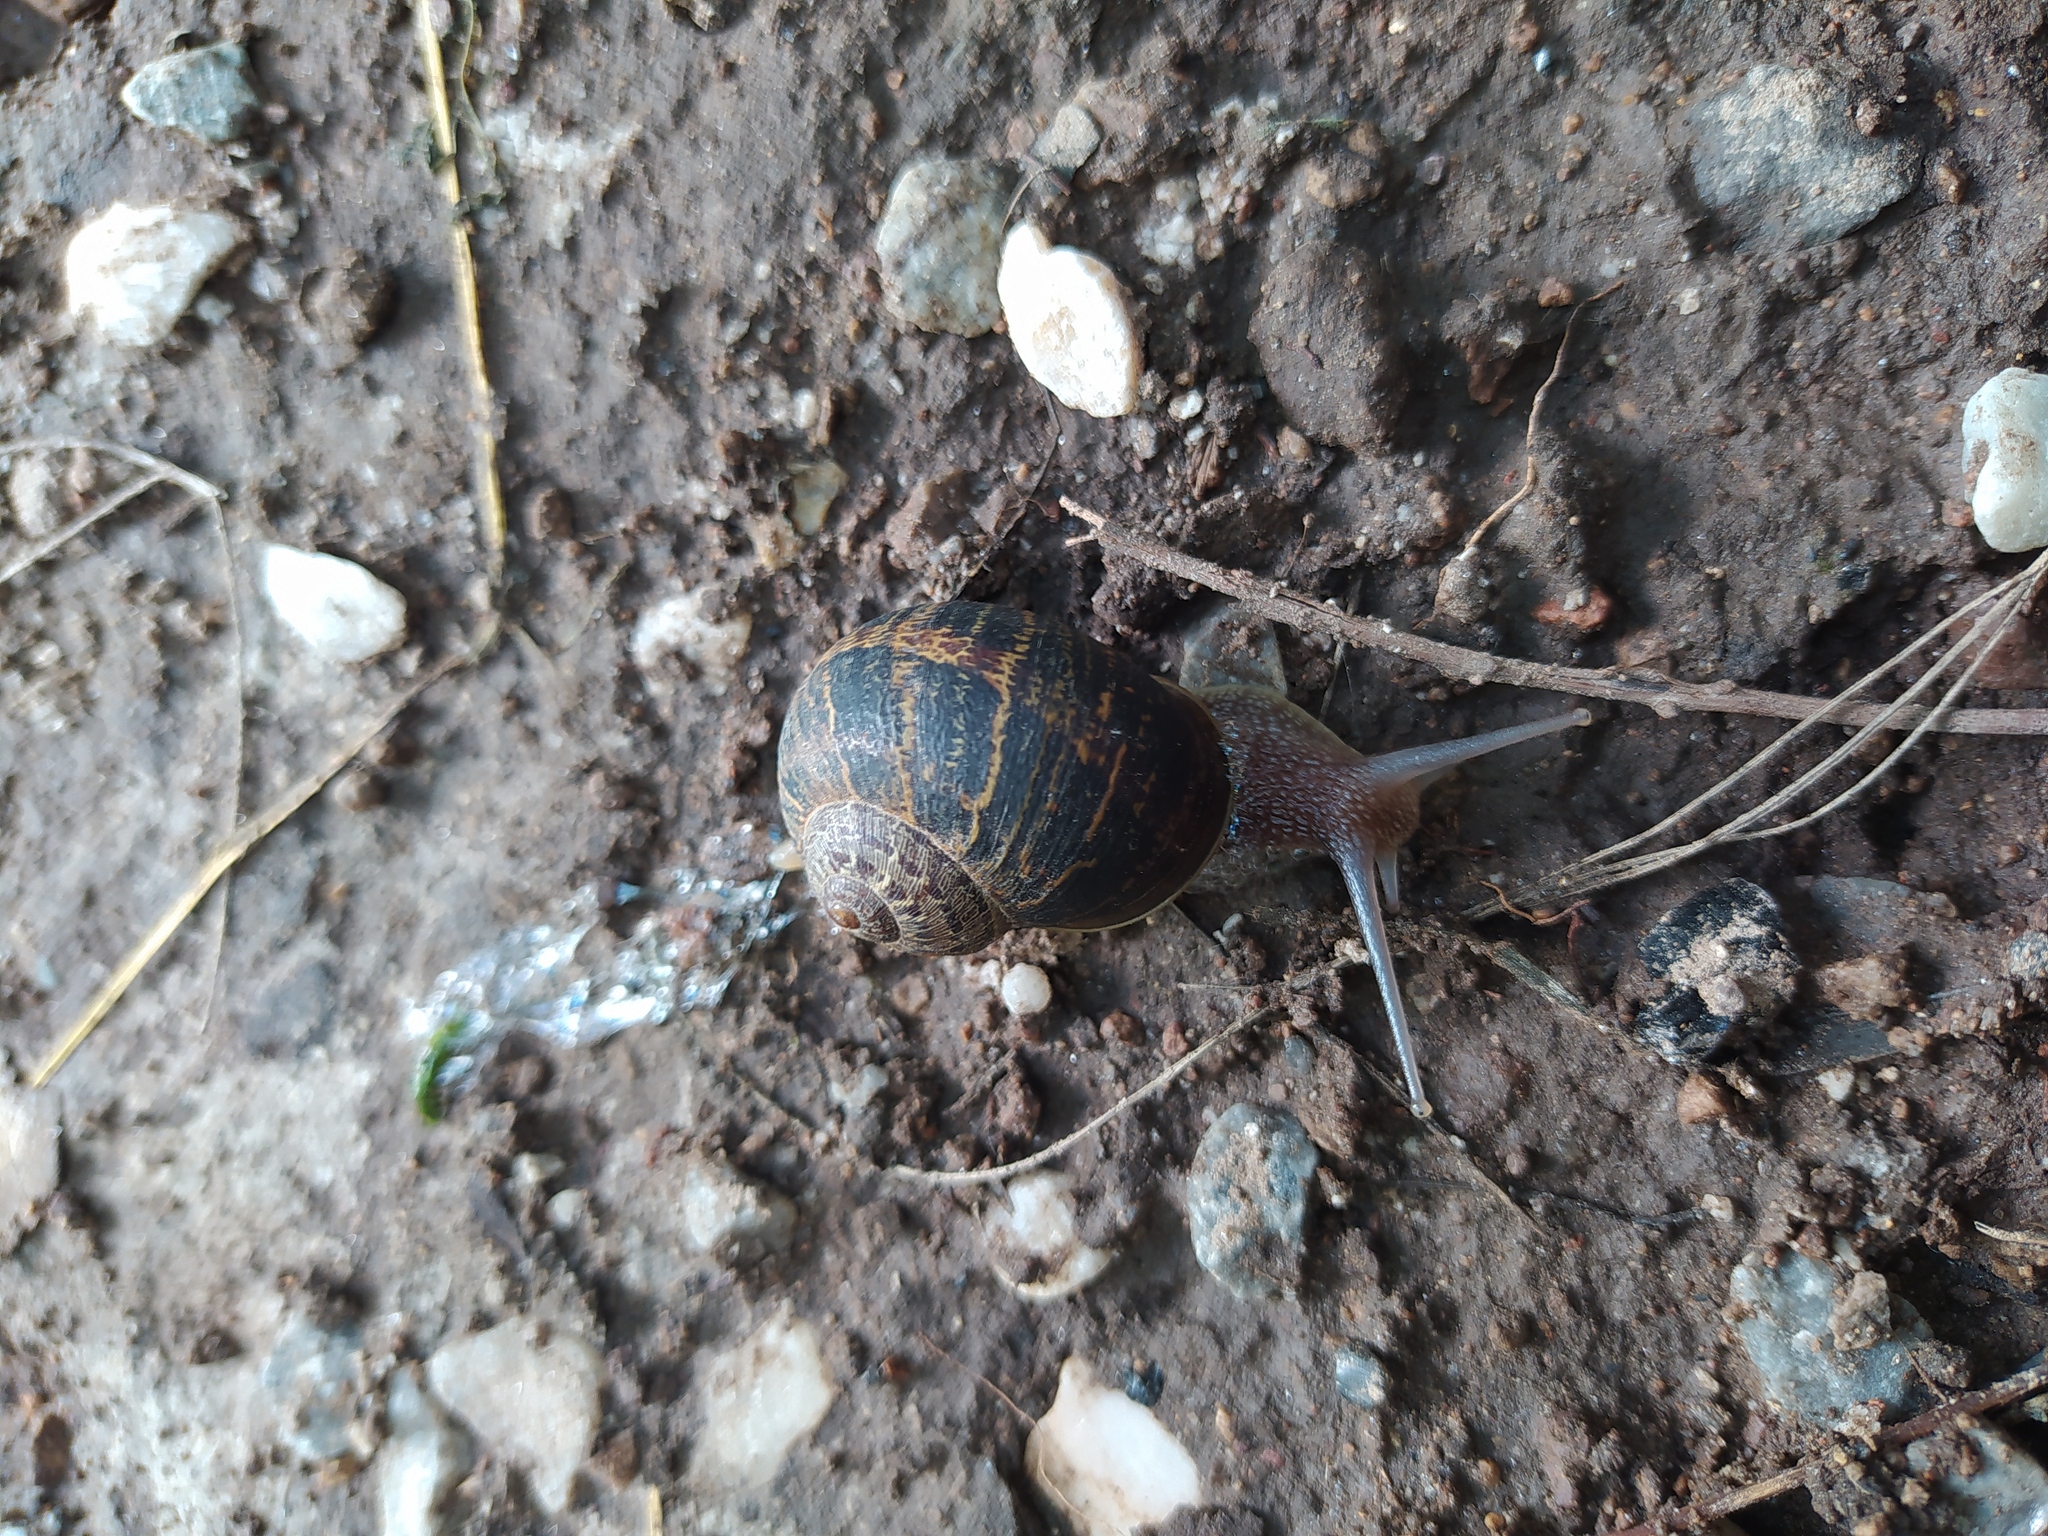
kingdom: Animalia
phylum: Mollusca
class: Gastropoda
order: Stylommatophora
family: Helicidae
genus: Cornu
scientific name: Cornu aspersum
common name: Brown garden snail
